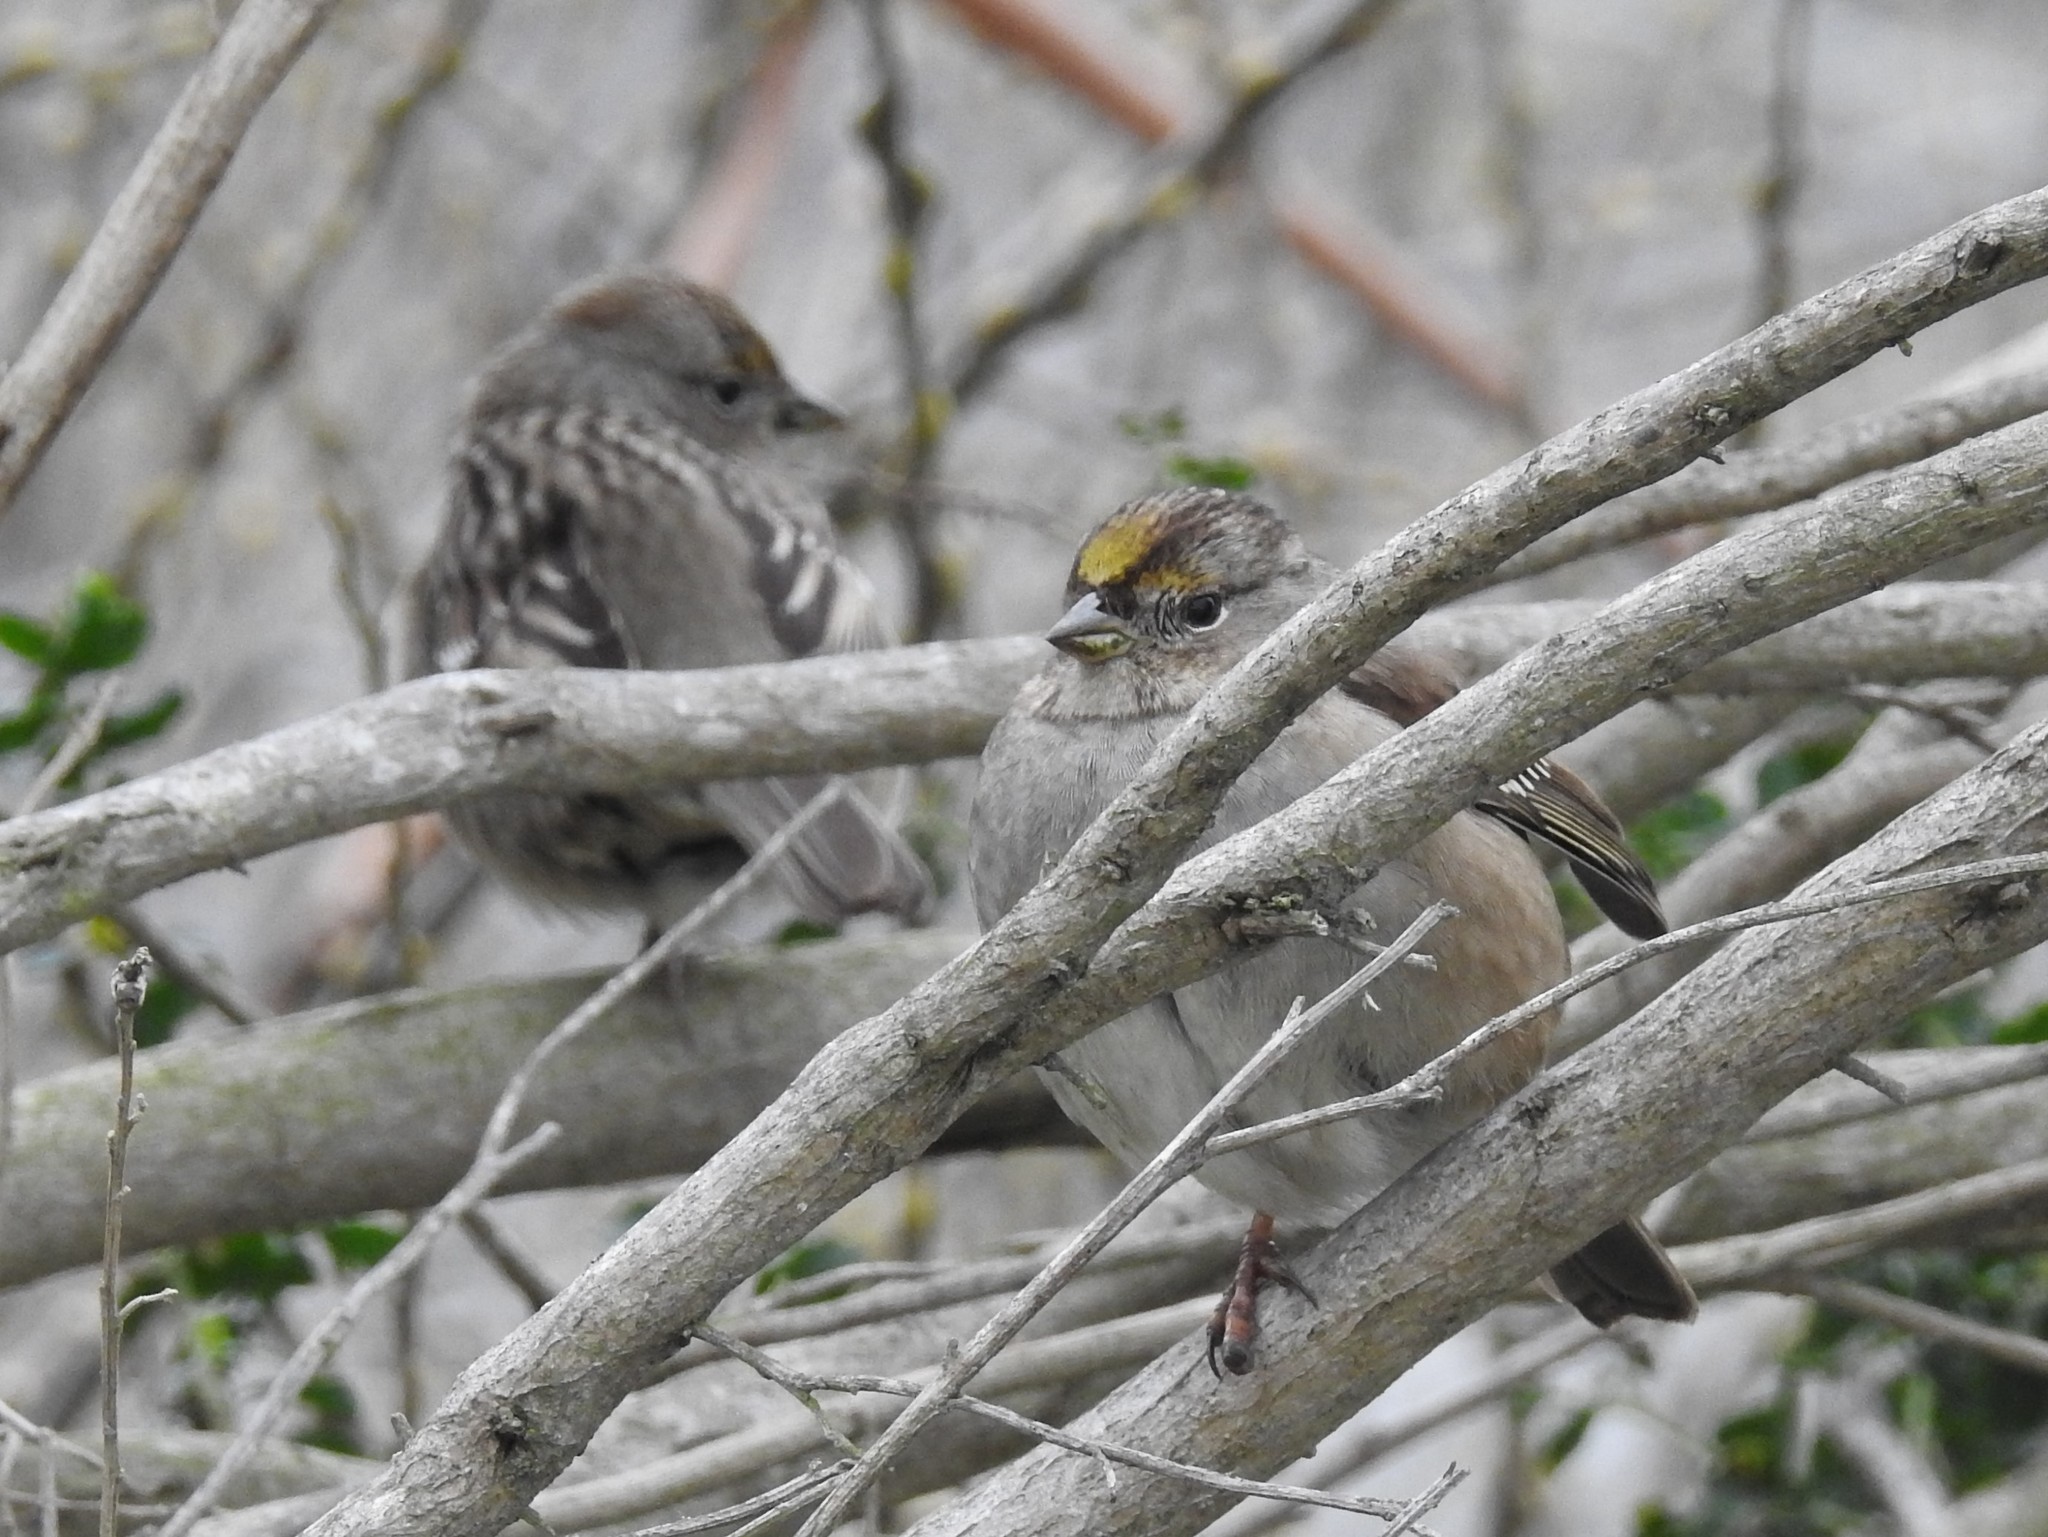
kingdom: Animalia
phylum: Chordata
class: Aves
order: Passeriformes
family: Passerellidae
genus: Zonotrichia
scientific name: Zonotrichia atricapilla
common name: Golden-crowned sparrow
